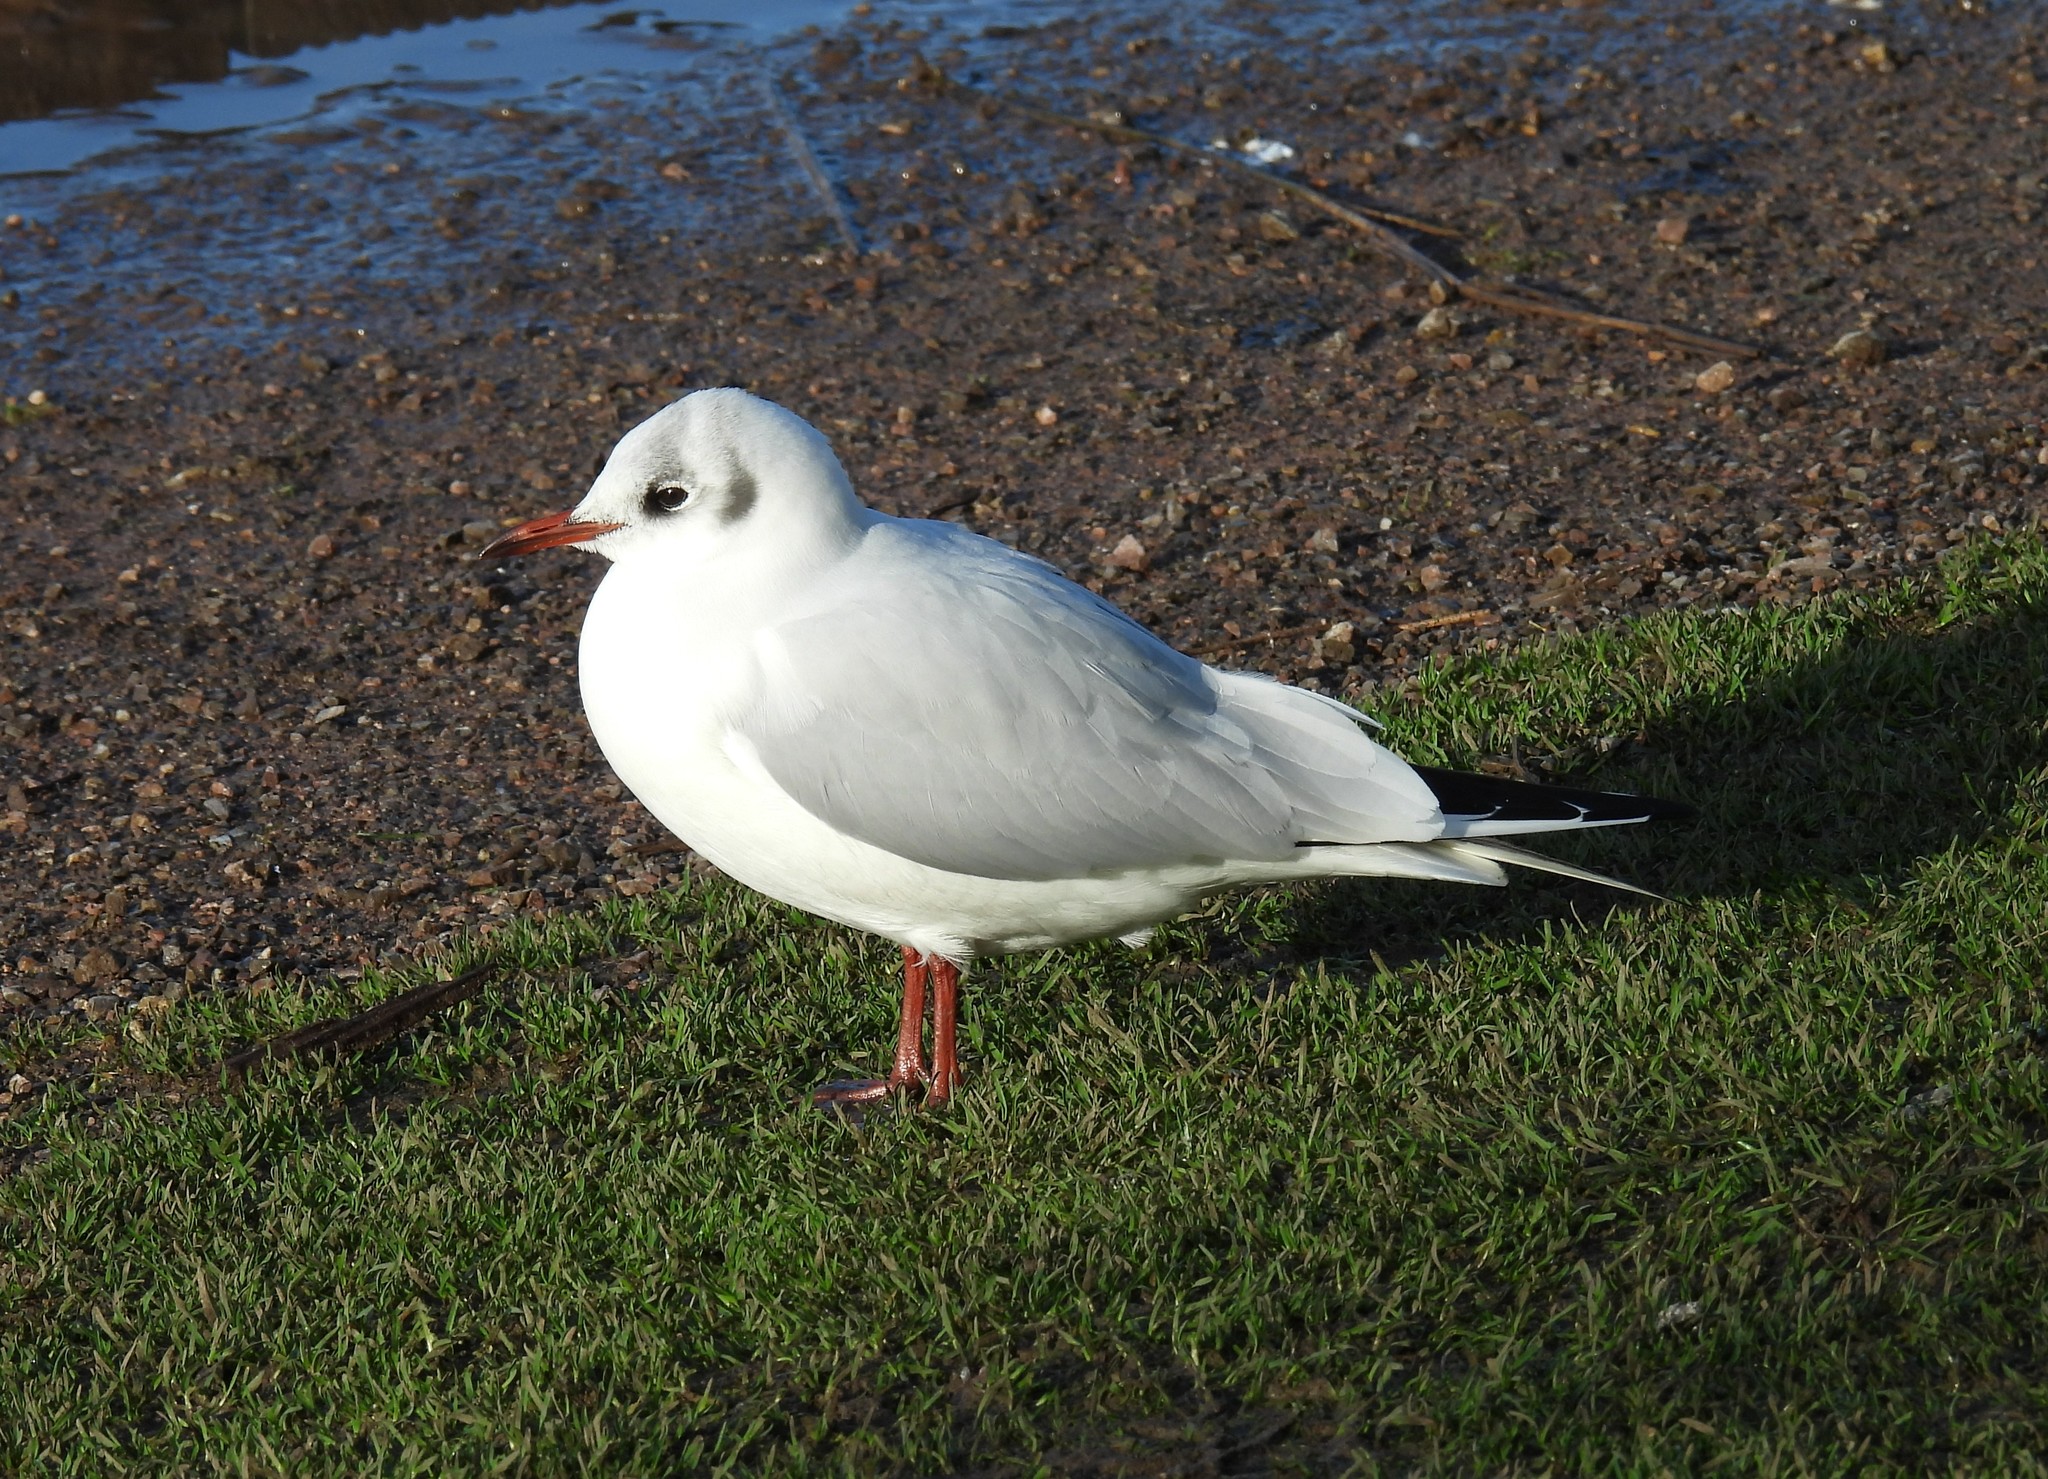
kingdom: Animalia
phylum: Chordata
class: Aves
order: Charadriiformes
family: Laridae
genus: Chroicocephalus
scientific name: Chroicocephalus ridibundus
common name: Black-headed gull
